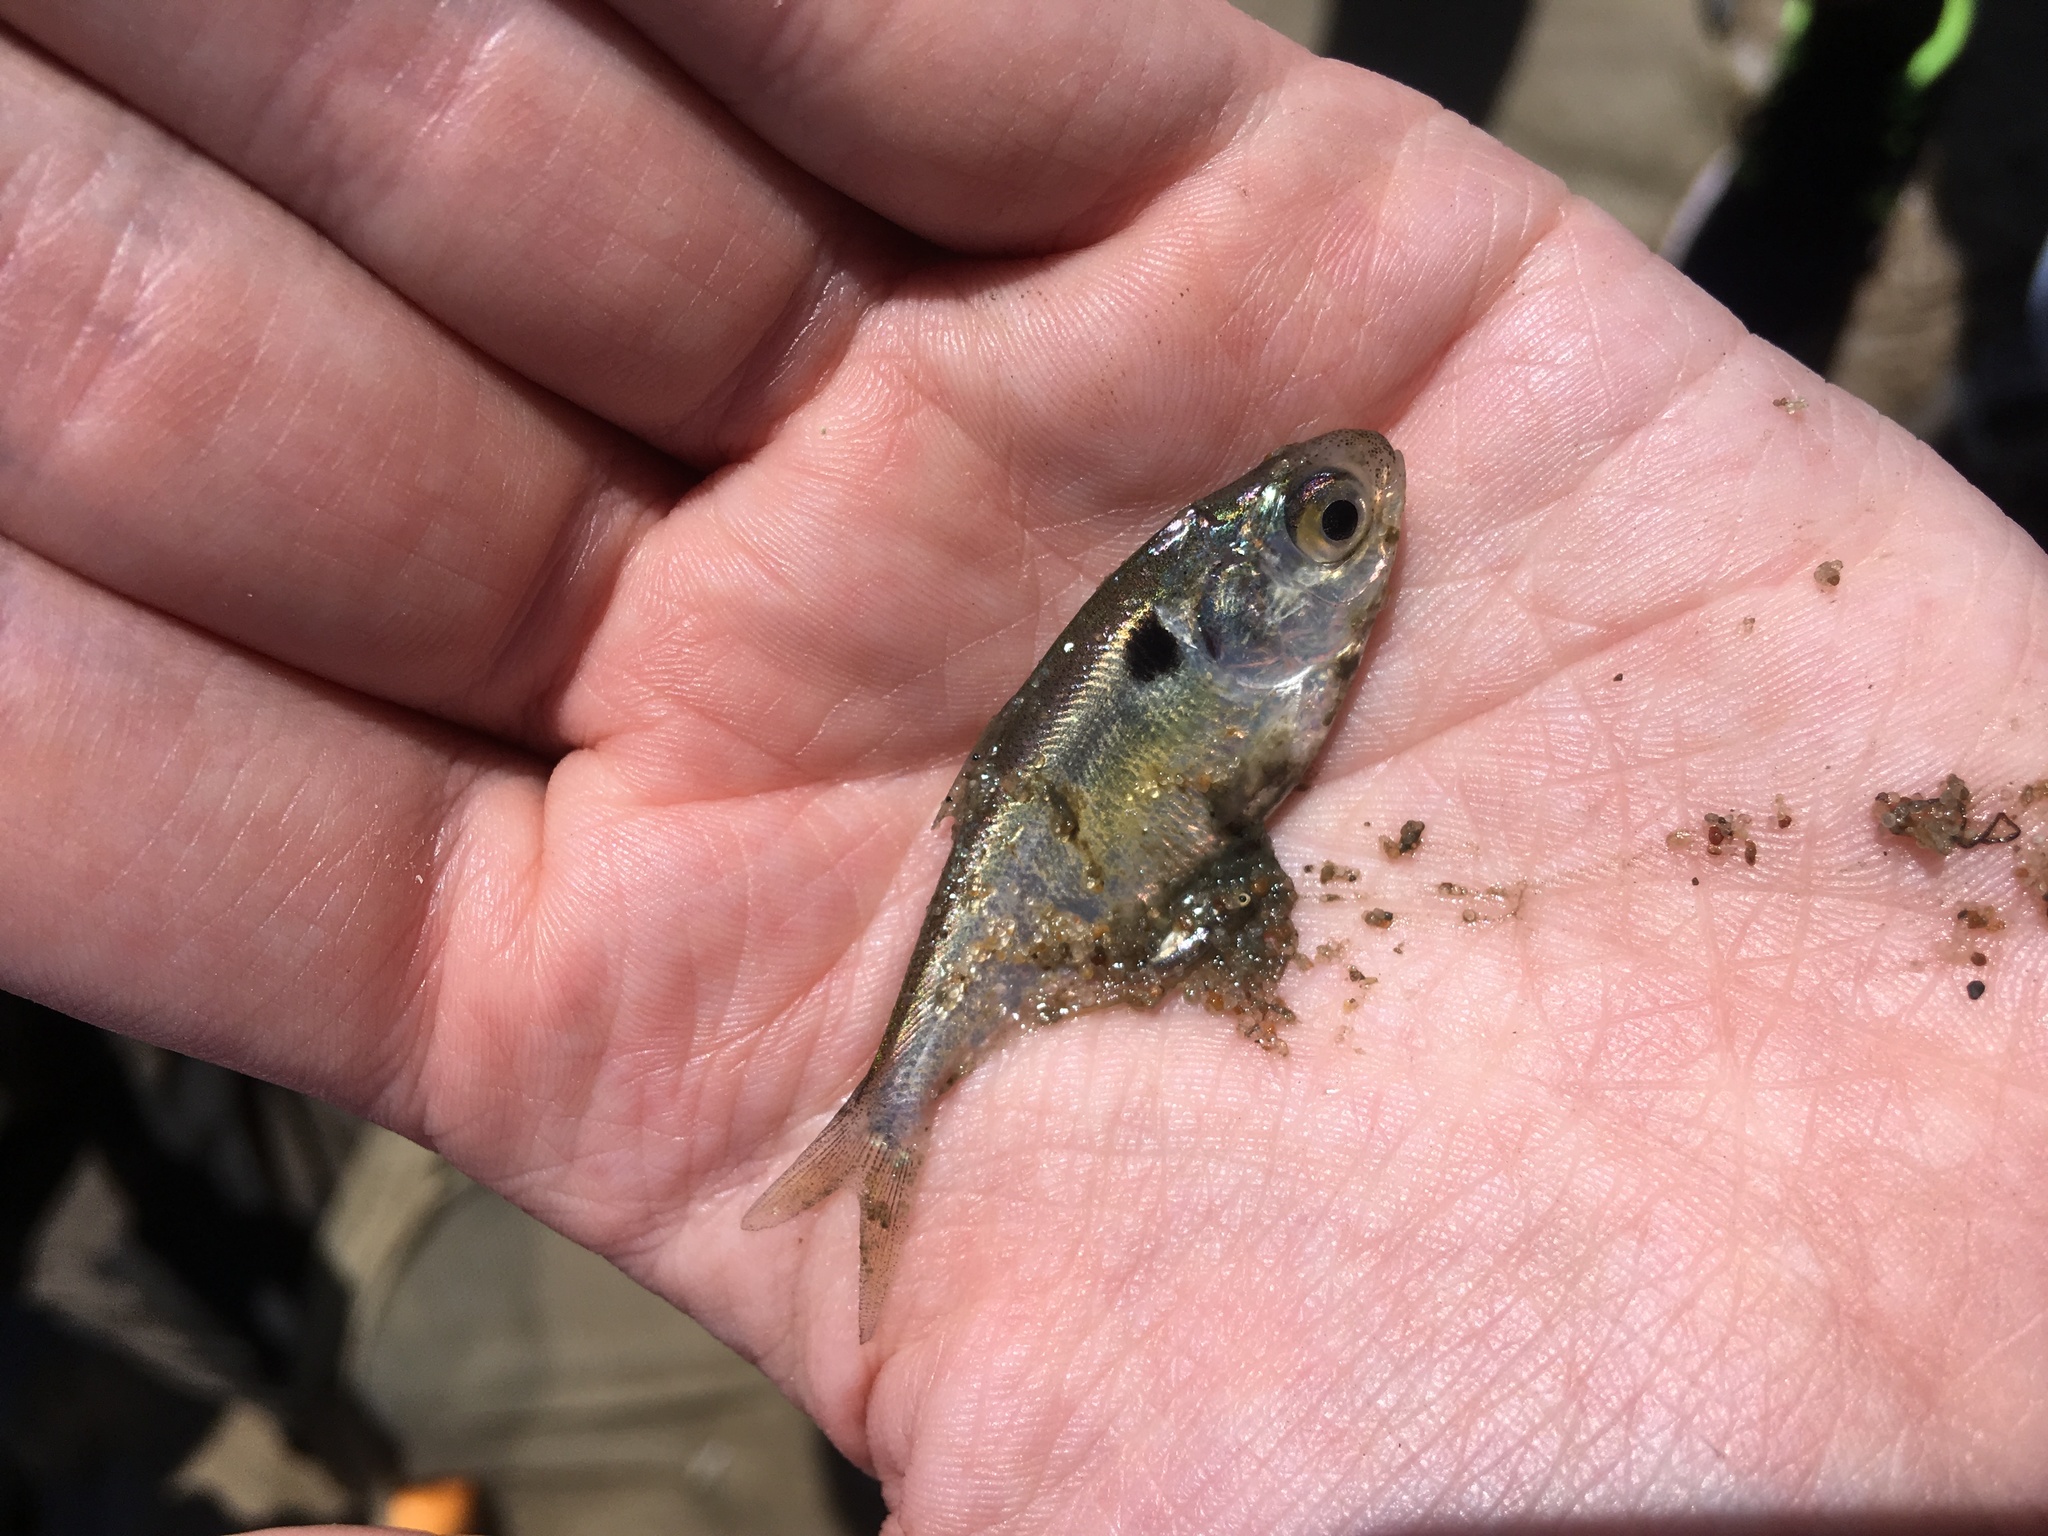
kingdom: Animalia
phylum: Chordata
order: Clupeiformes
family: Clupeidae
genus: Dorosoma
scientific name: Dorosoma cepedianum
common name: Gizzard shad
